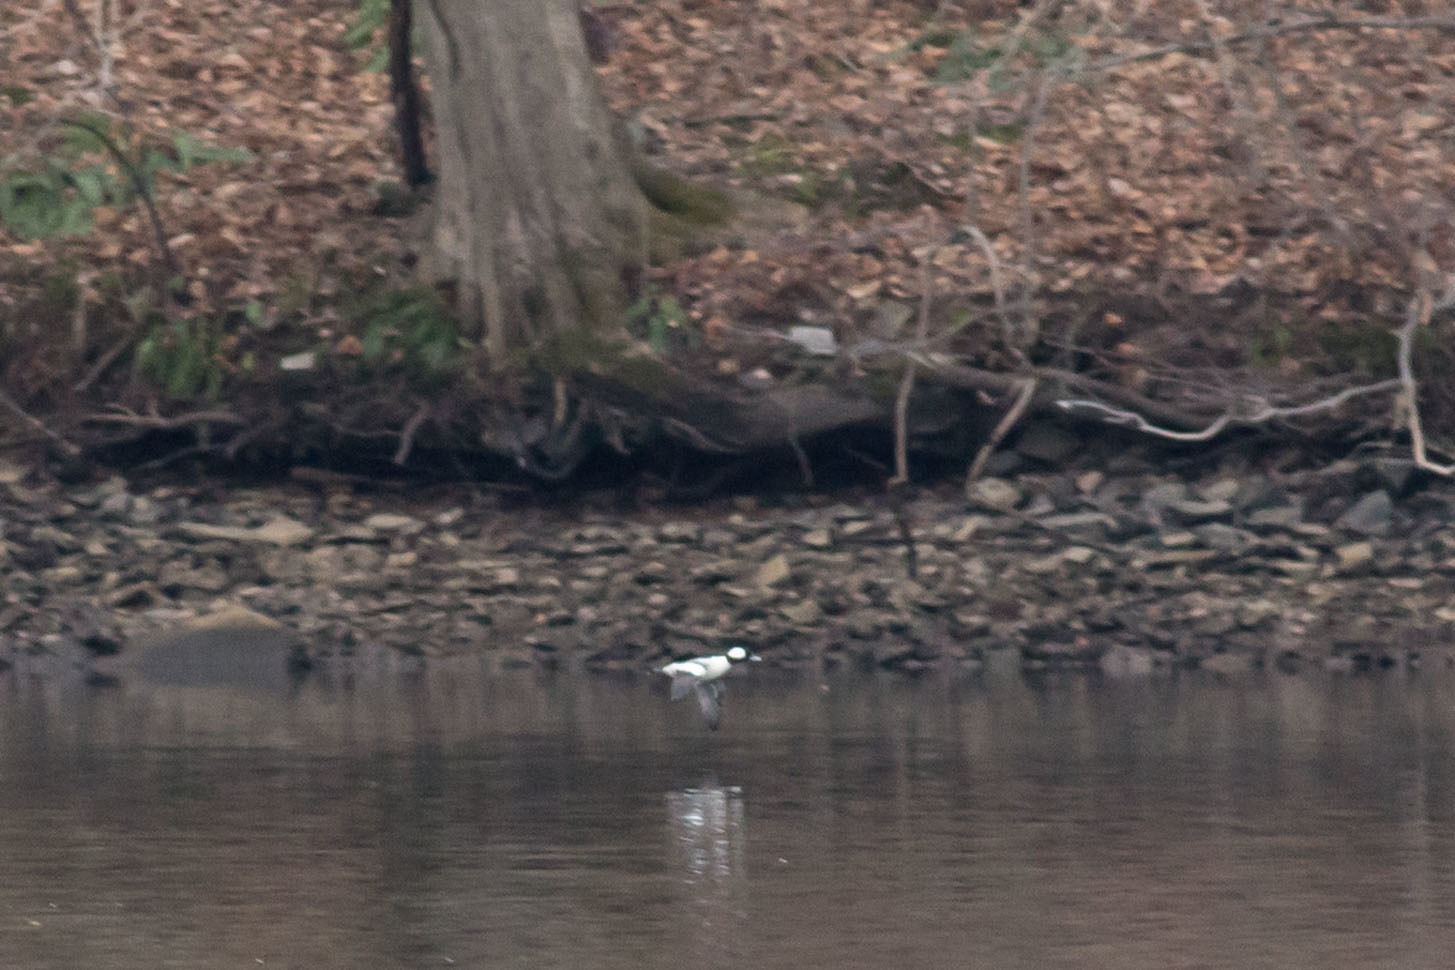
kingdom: Animalia
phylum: Chordata
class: Aves
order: Anseriformes
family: Anatidae
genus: Bucephala
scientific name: Bucephala albeola
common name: Bufflehead
